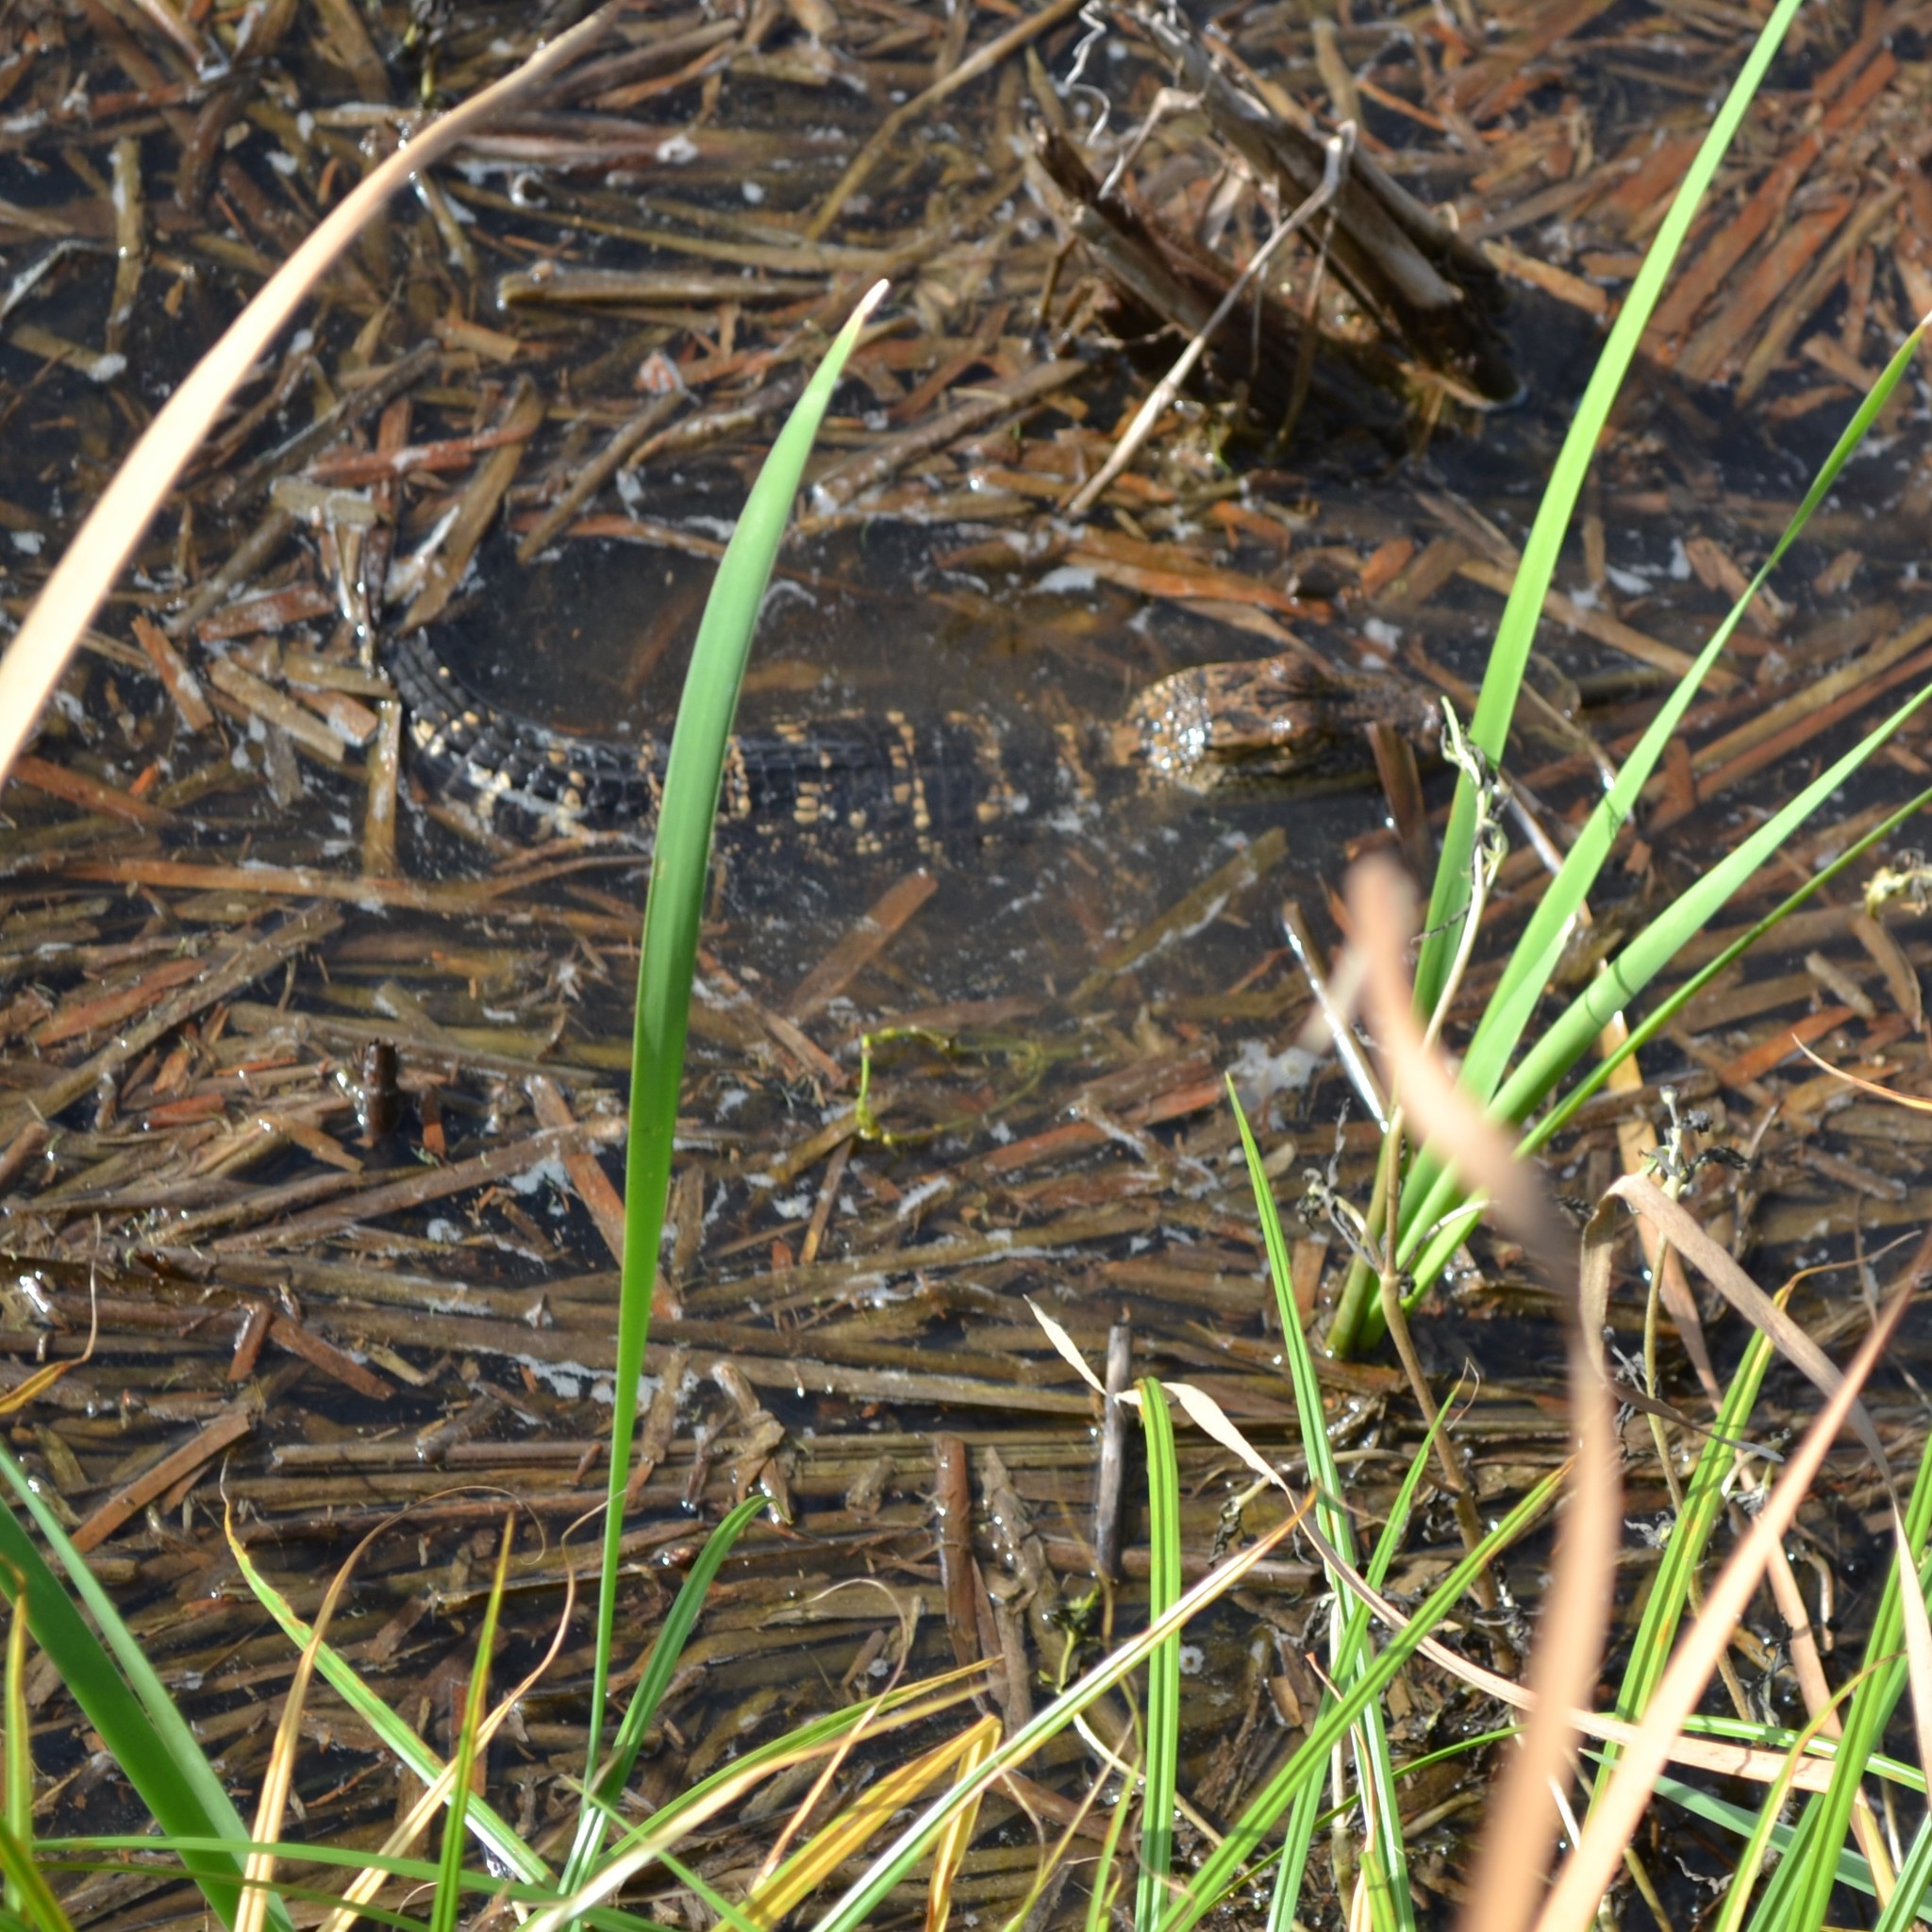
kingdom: Animalia
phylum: Chordata
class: Crocodylia
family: Alligatoridae
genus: Alligator
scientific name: Alligator mississippiensis
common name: American alligator
